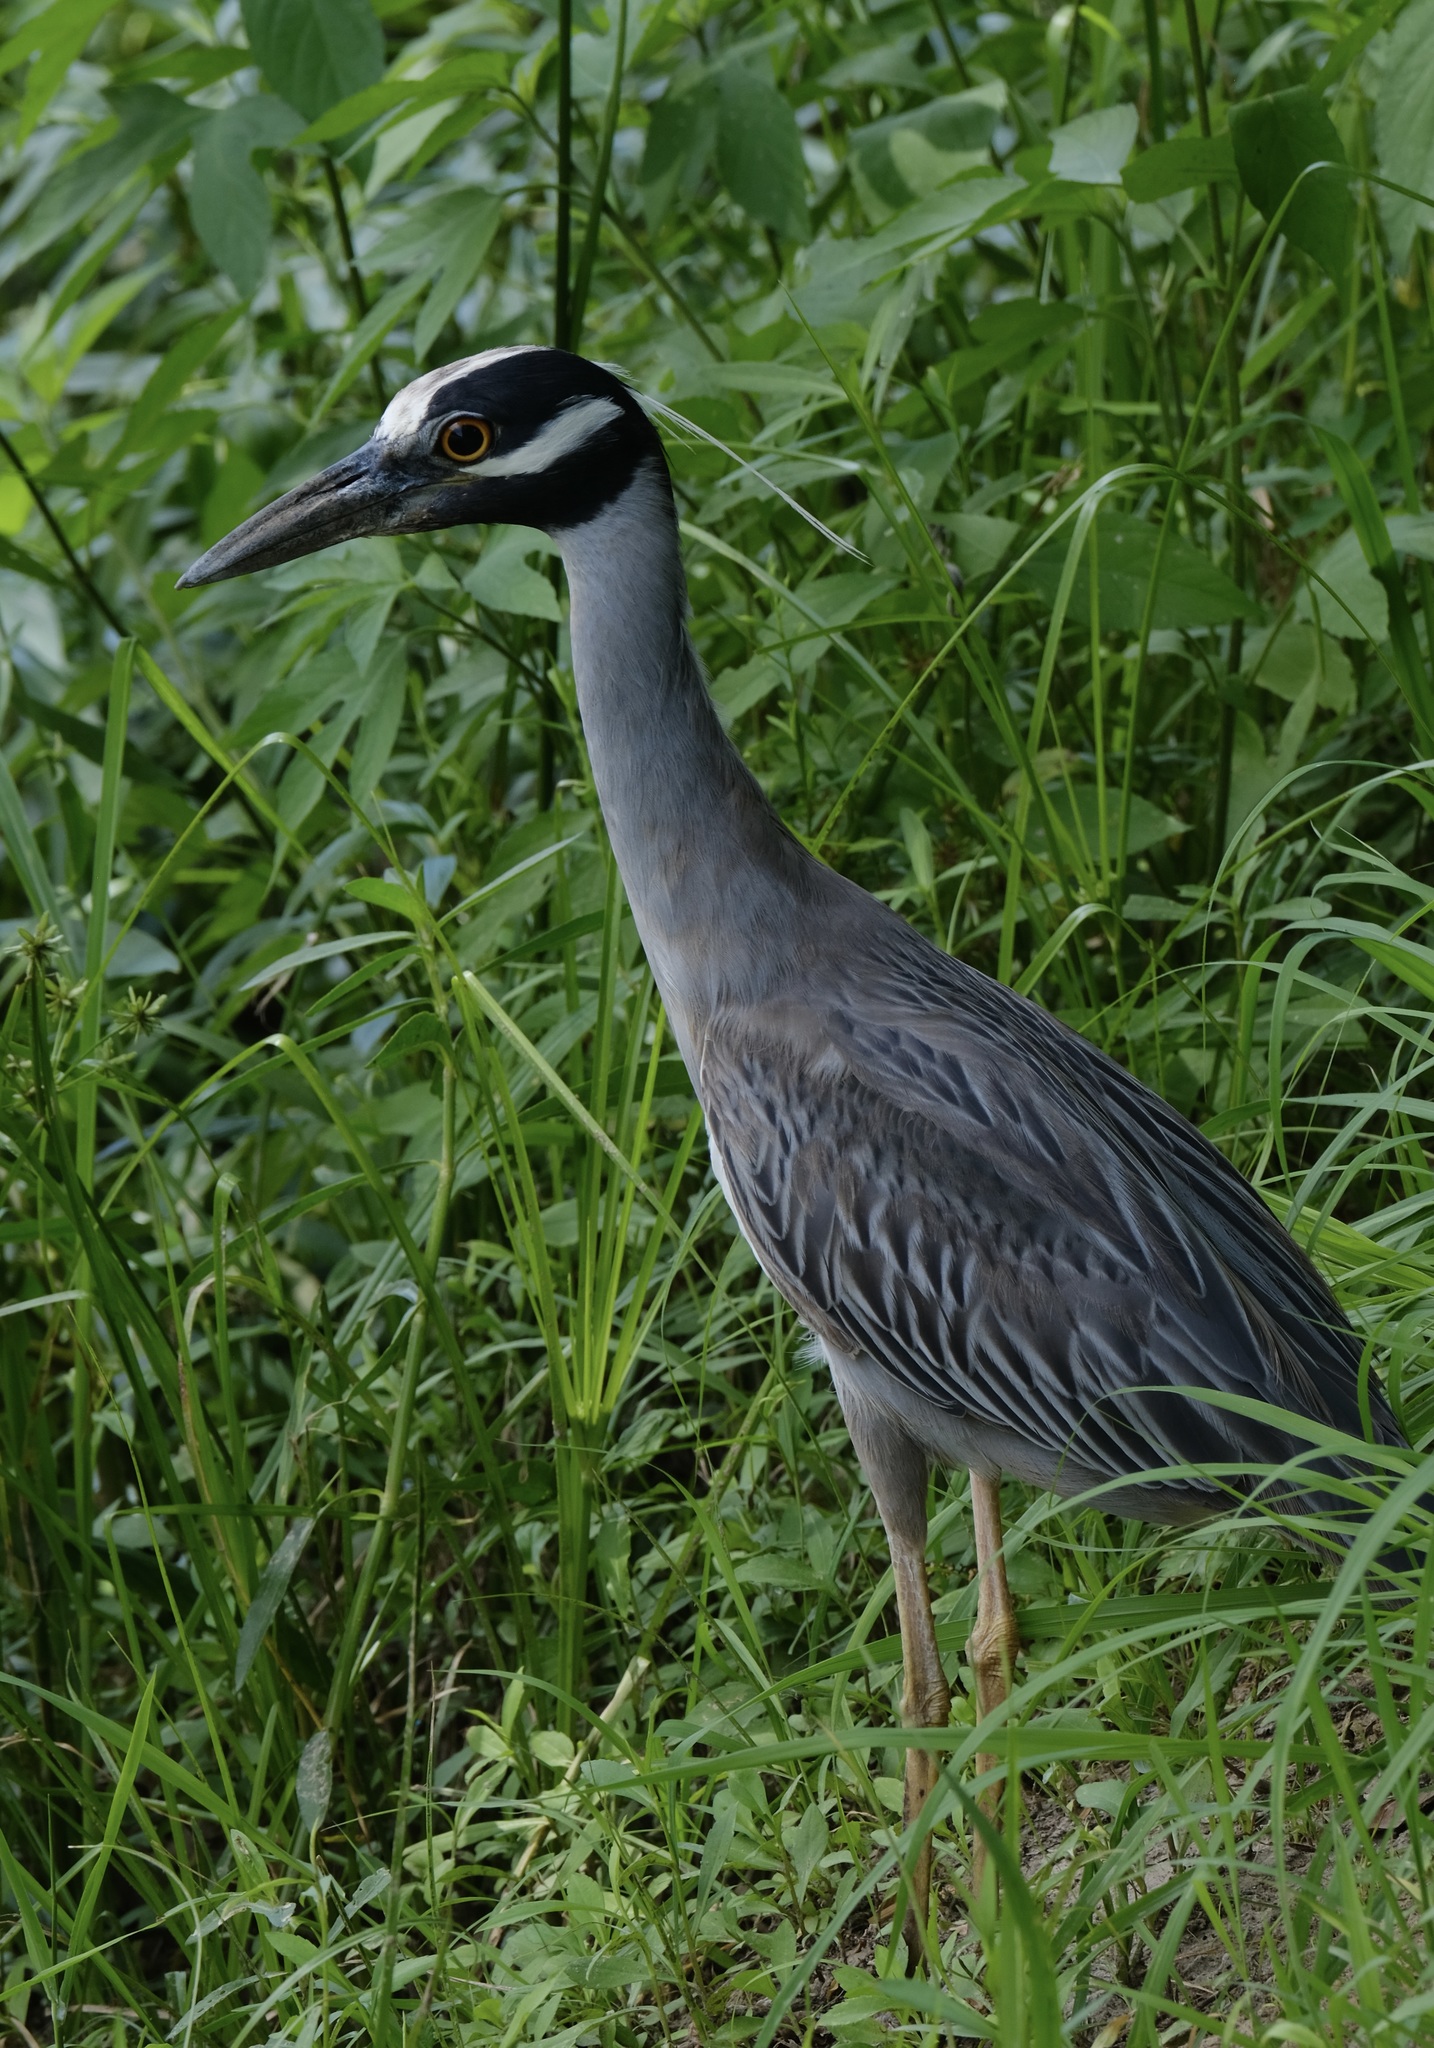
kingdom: Animalia
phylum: Chordata
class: Aves
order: Pelecaniformes
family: Ardeidae
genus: Nyctanassa
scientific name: Nyctanassa violacea
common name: Yellow-crowned night heron
